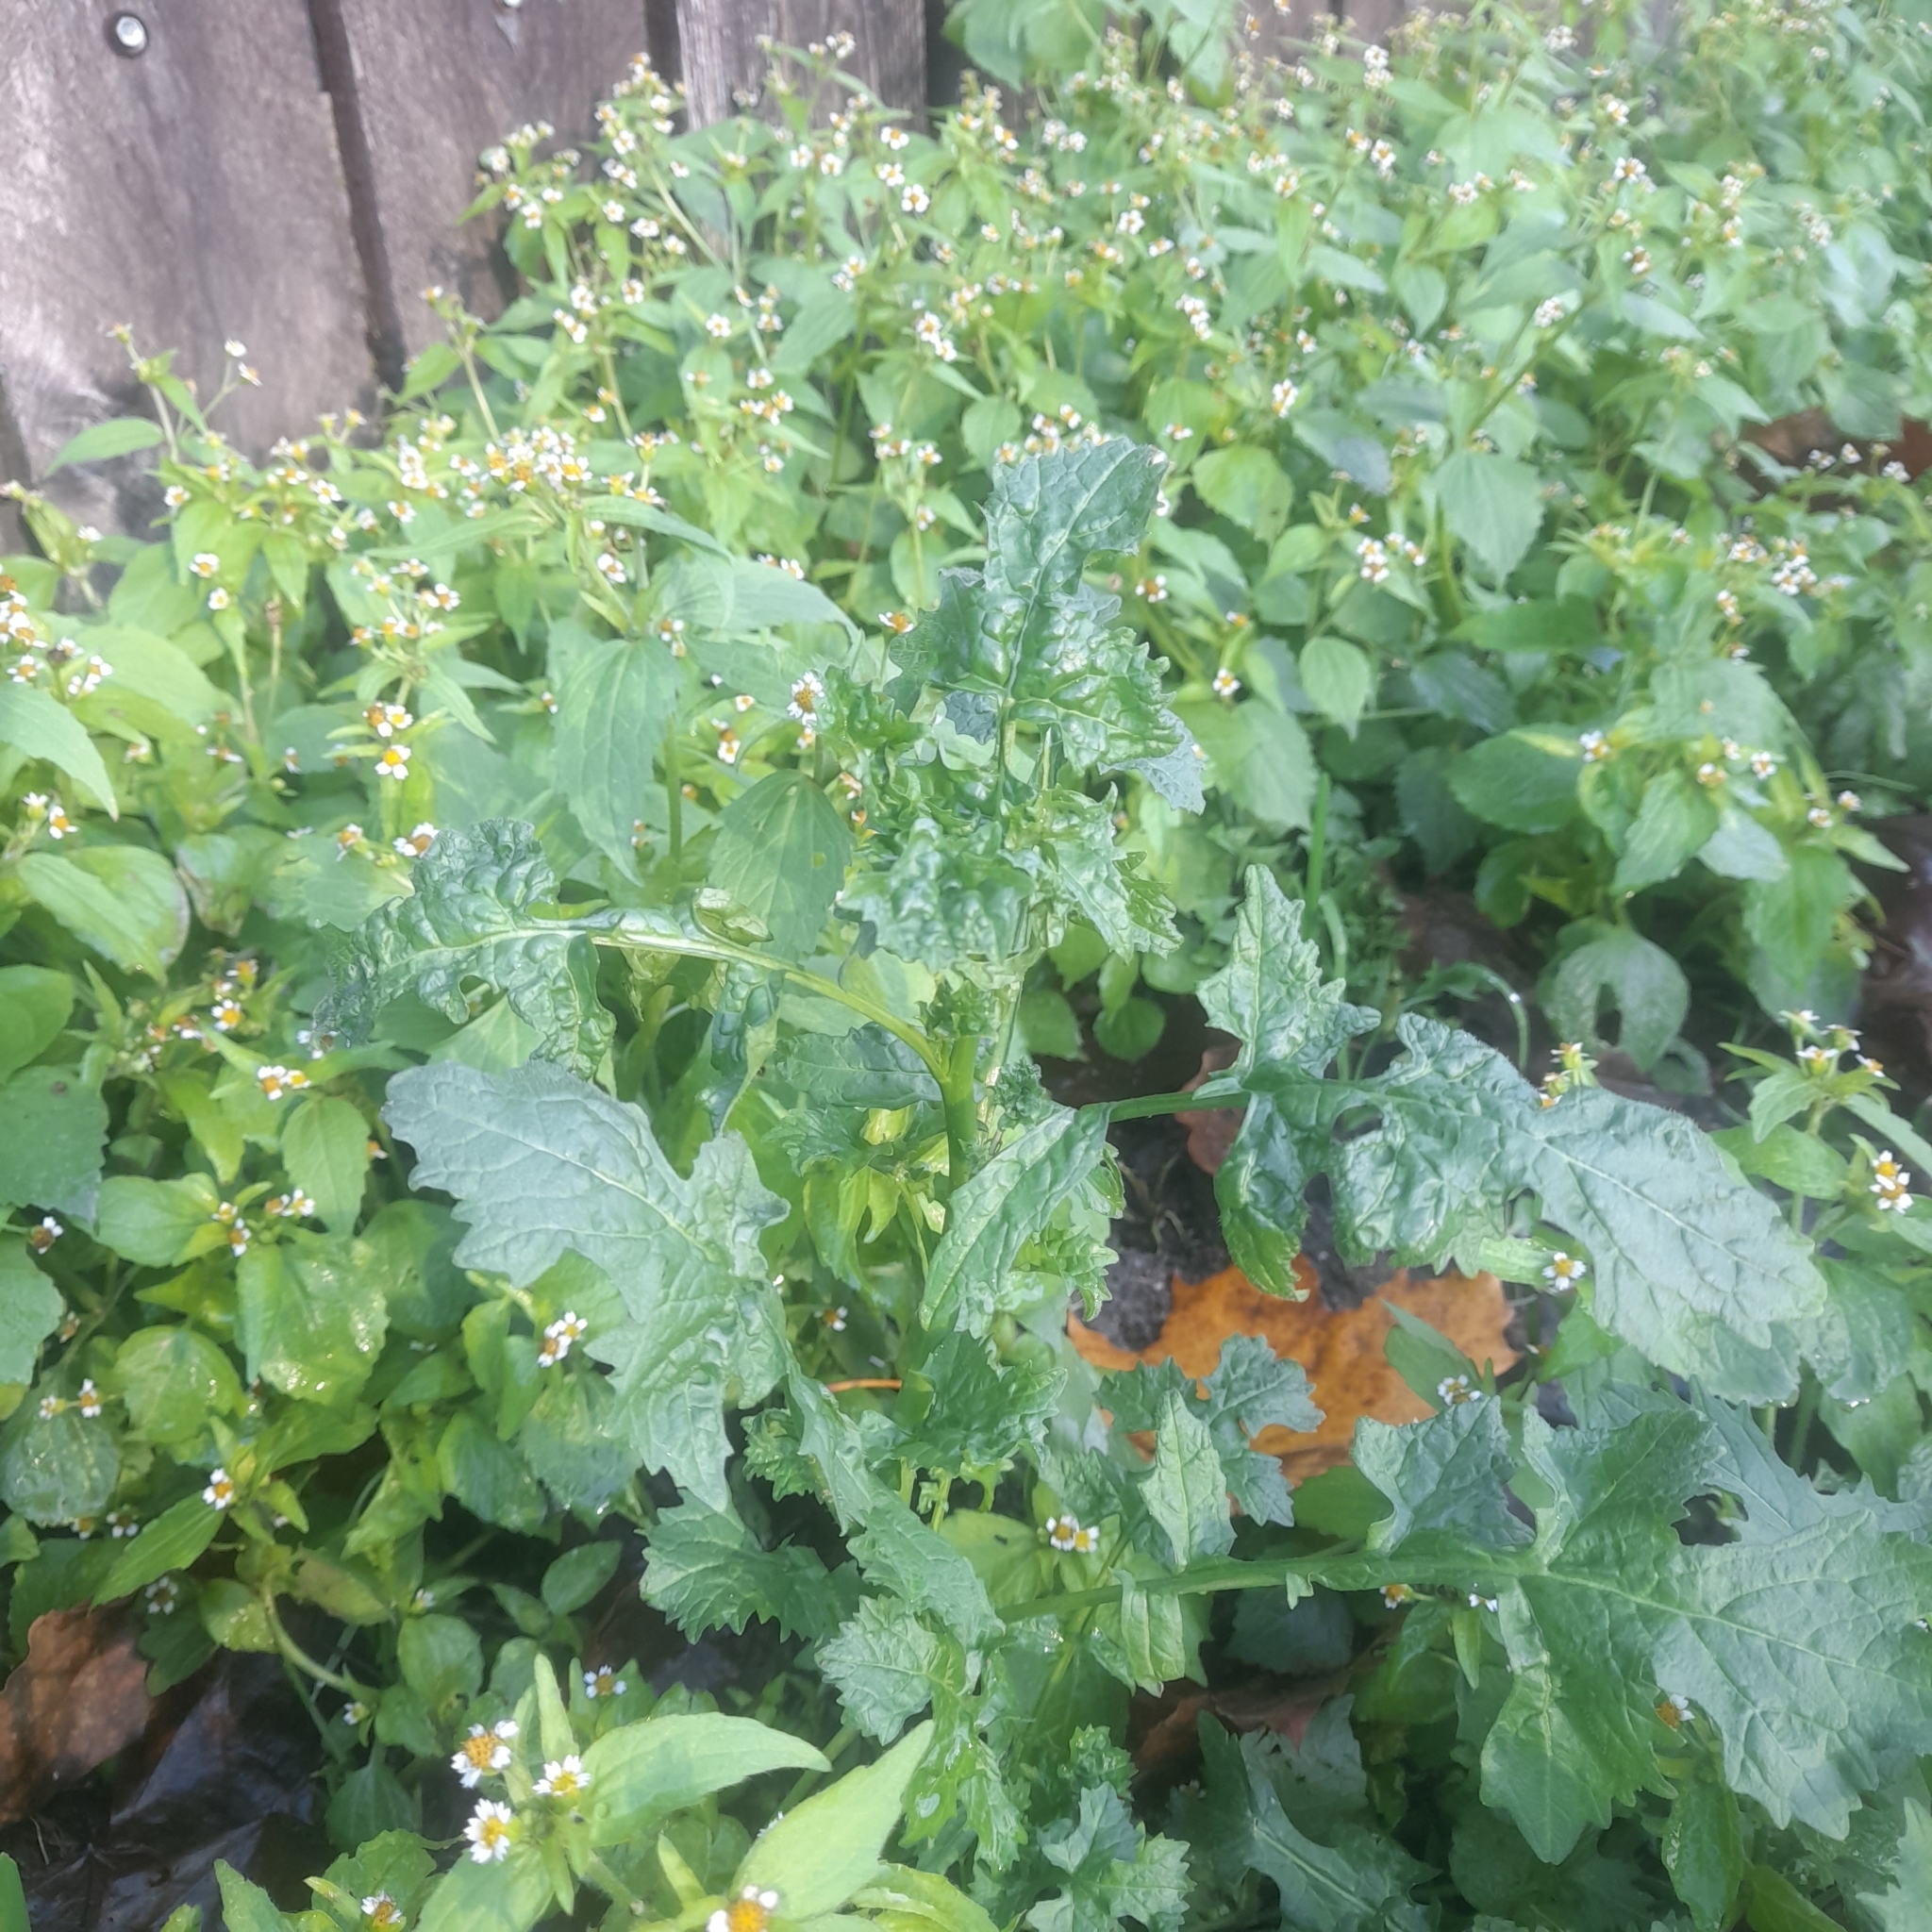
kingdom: Plantae
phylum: Tracheophyta
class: Magnoliopsida
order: Brassicales
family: Brassicaceae
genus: Sisymbrium
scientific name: Sisymbrium officinale
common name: Hedge mustard
